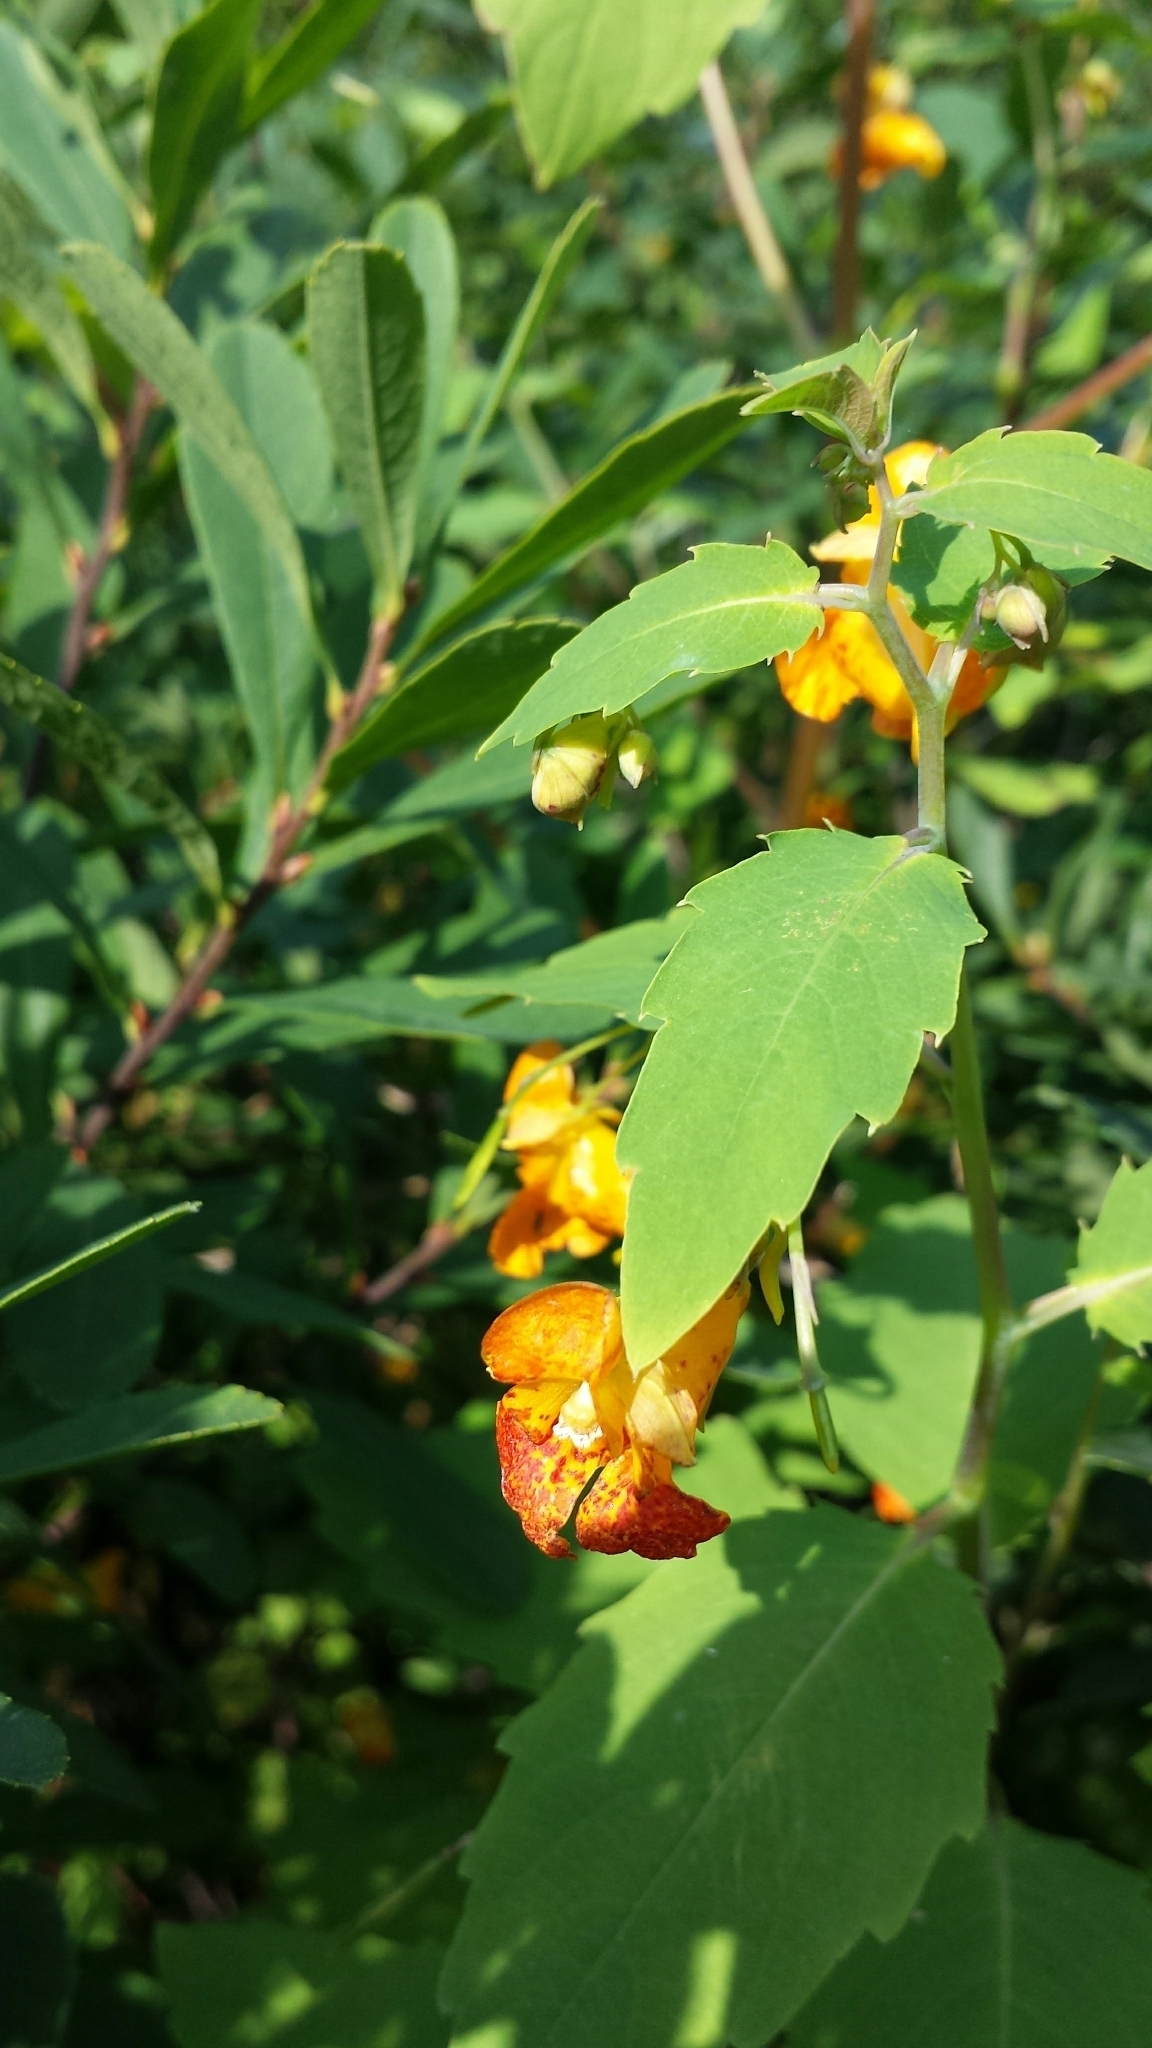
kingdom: Plantae
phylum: Tracheophyta
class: Magnoliopsida
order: Ericales
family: Balsaminaceae
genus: Impatiens
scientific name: Impatiens capensis
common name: Orange balsam
